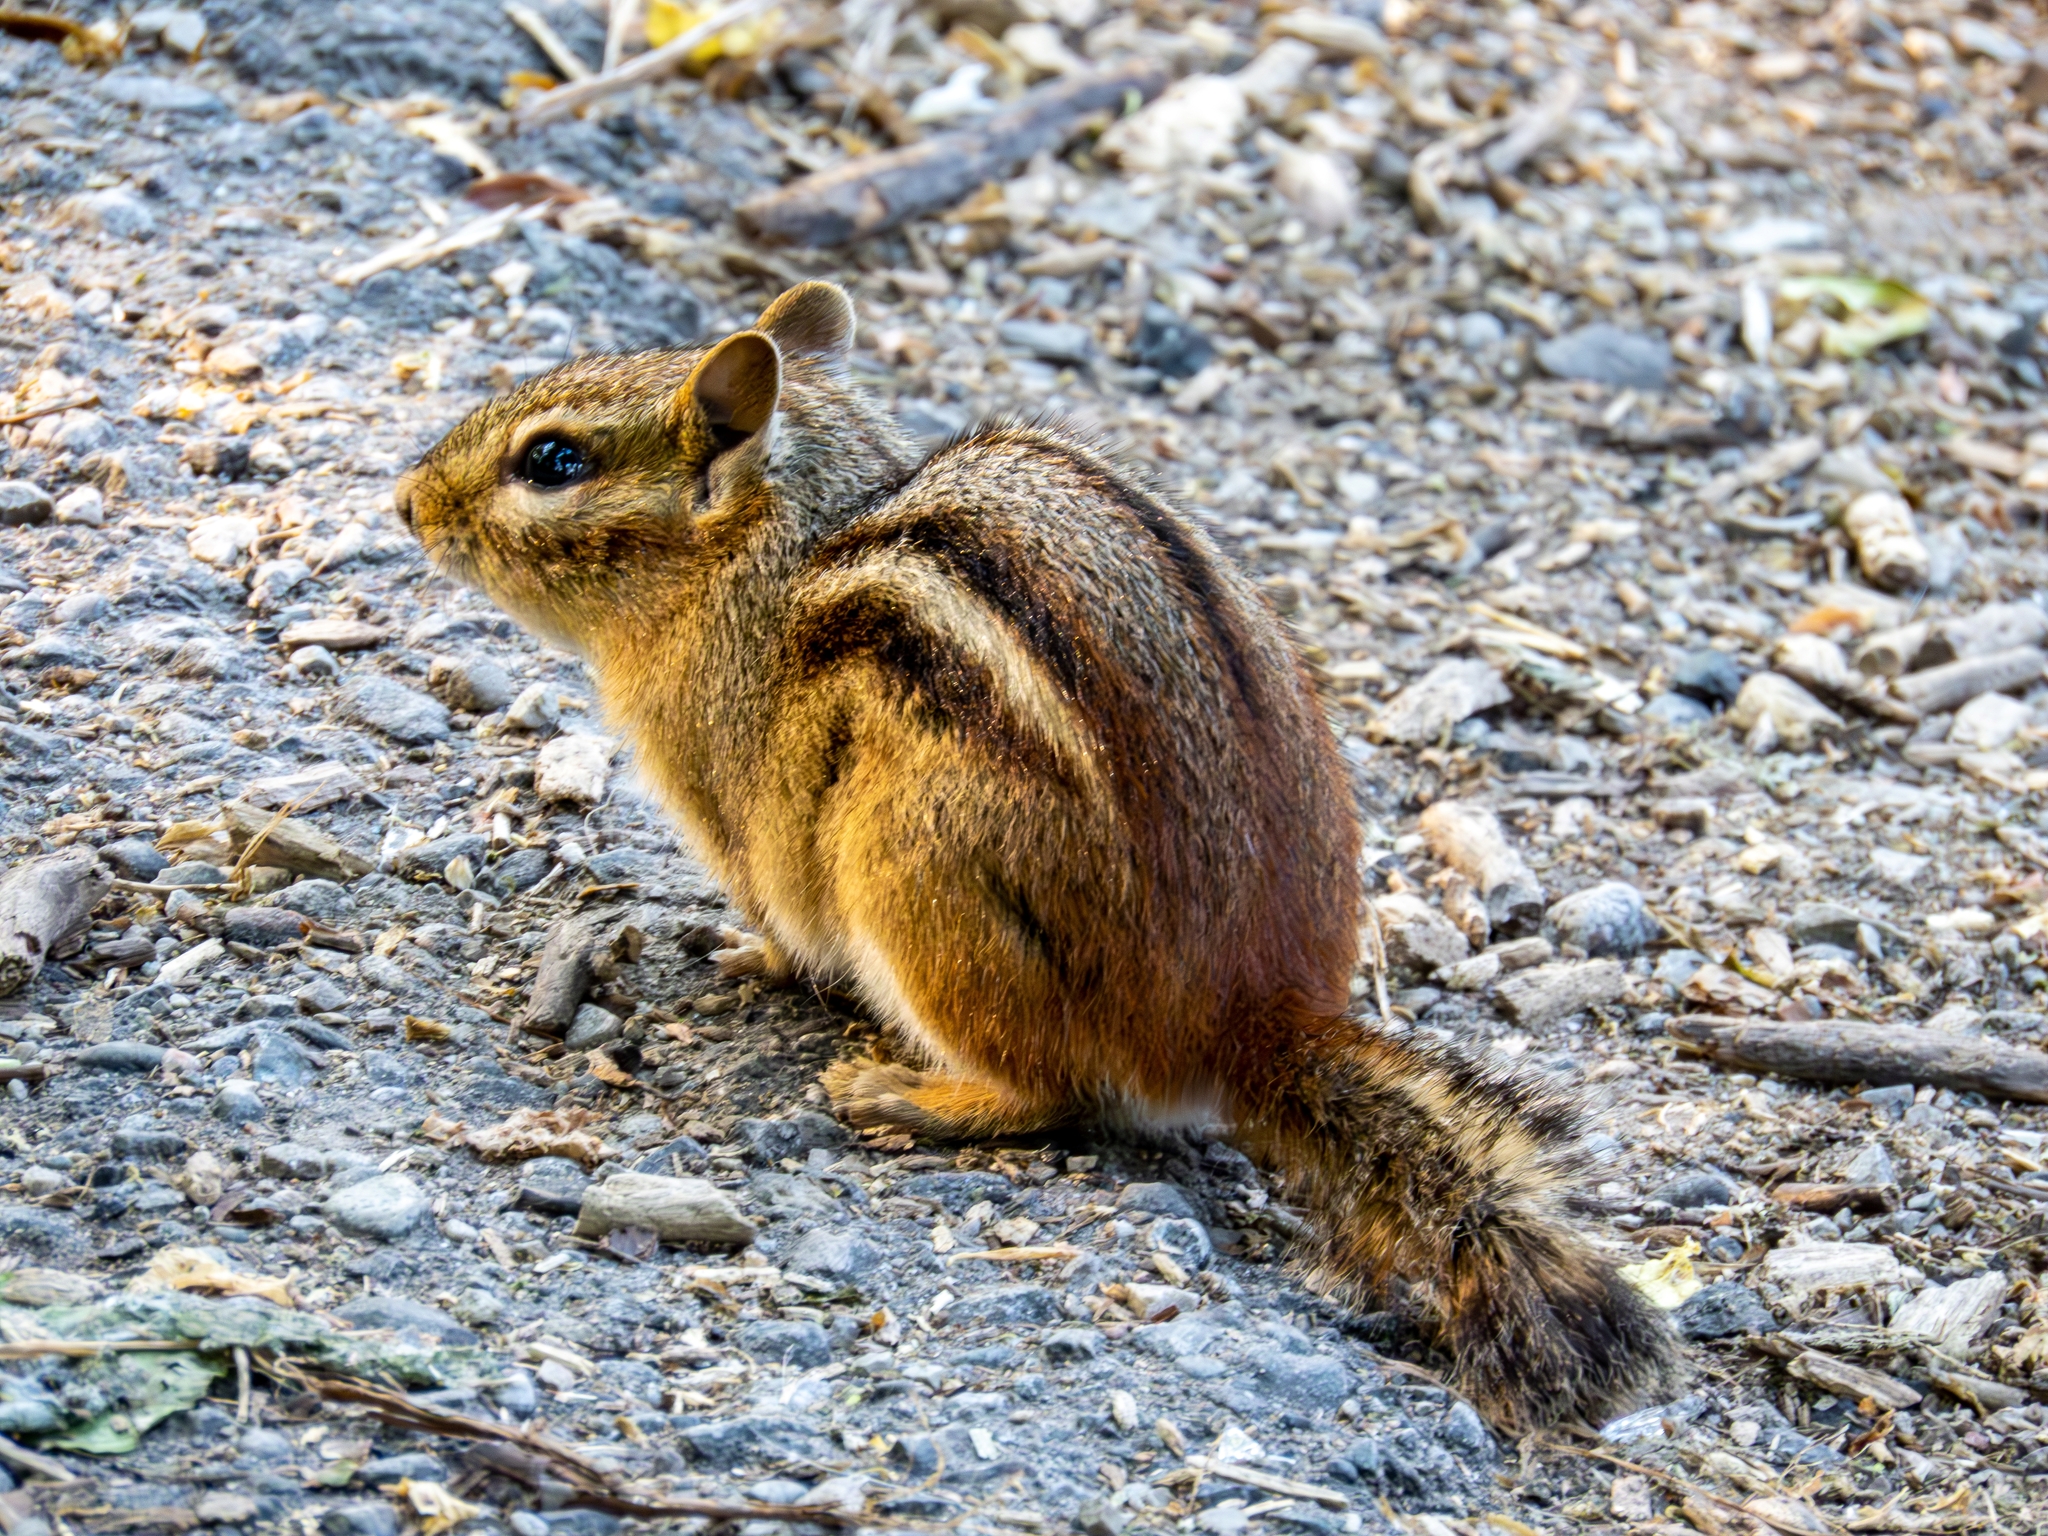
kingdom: Animalia
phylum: Chordata
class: Mammalia
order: Rodentia
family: Sciuridae
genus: Tamias
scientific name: Tamias striatus
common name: Eastern chipmunk
